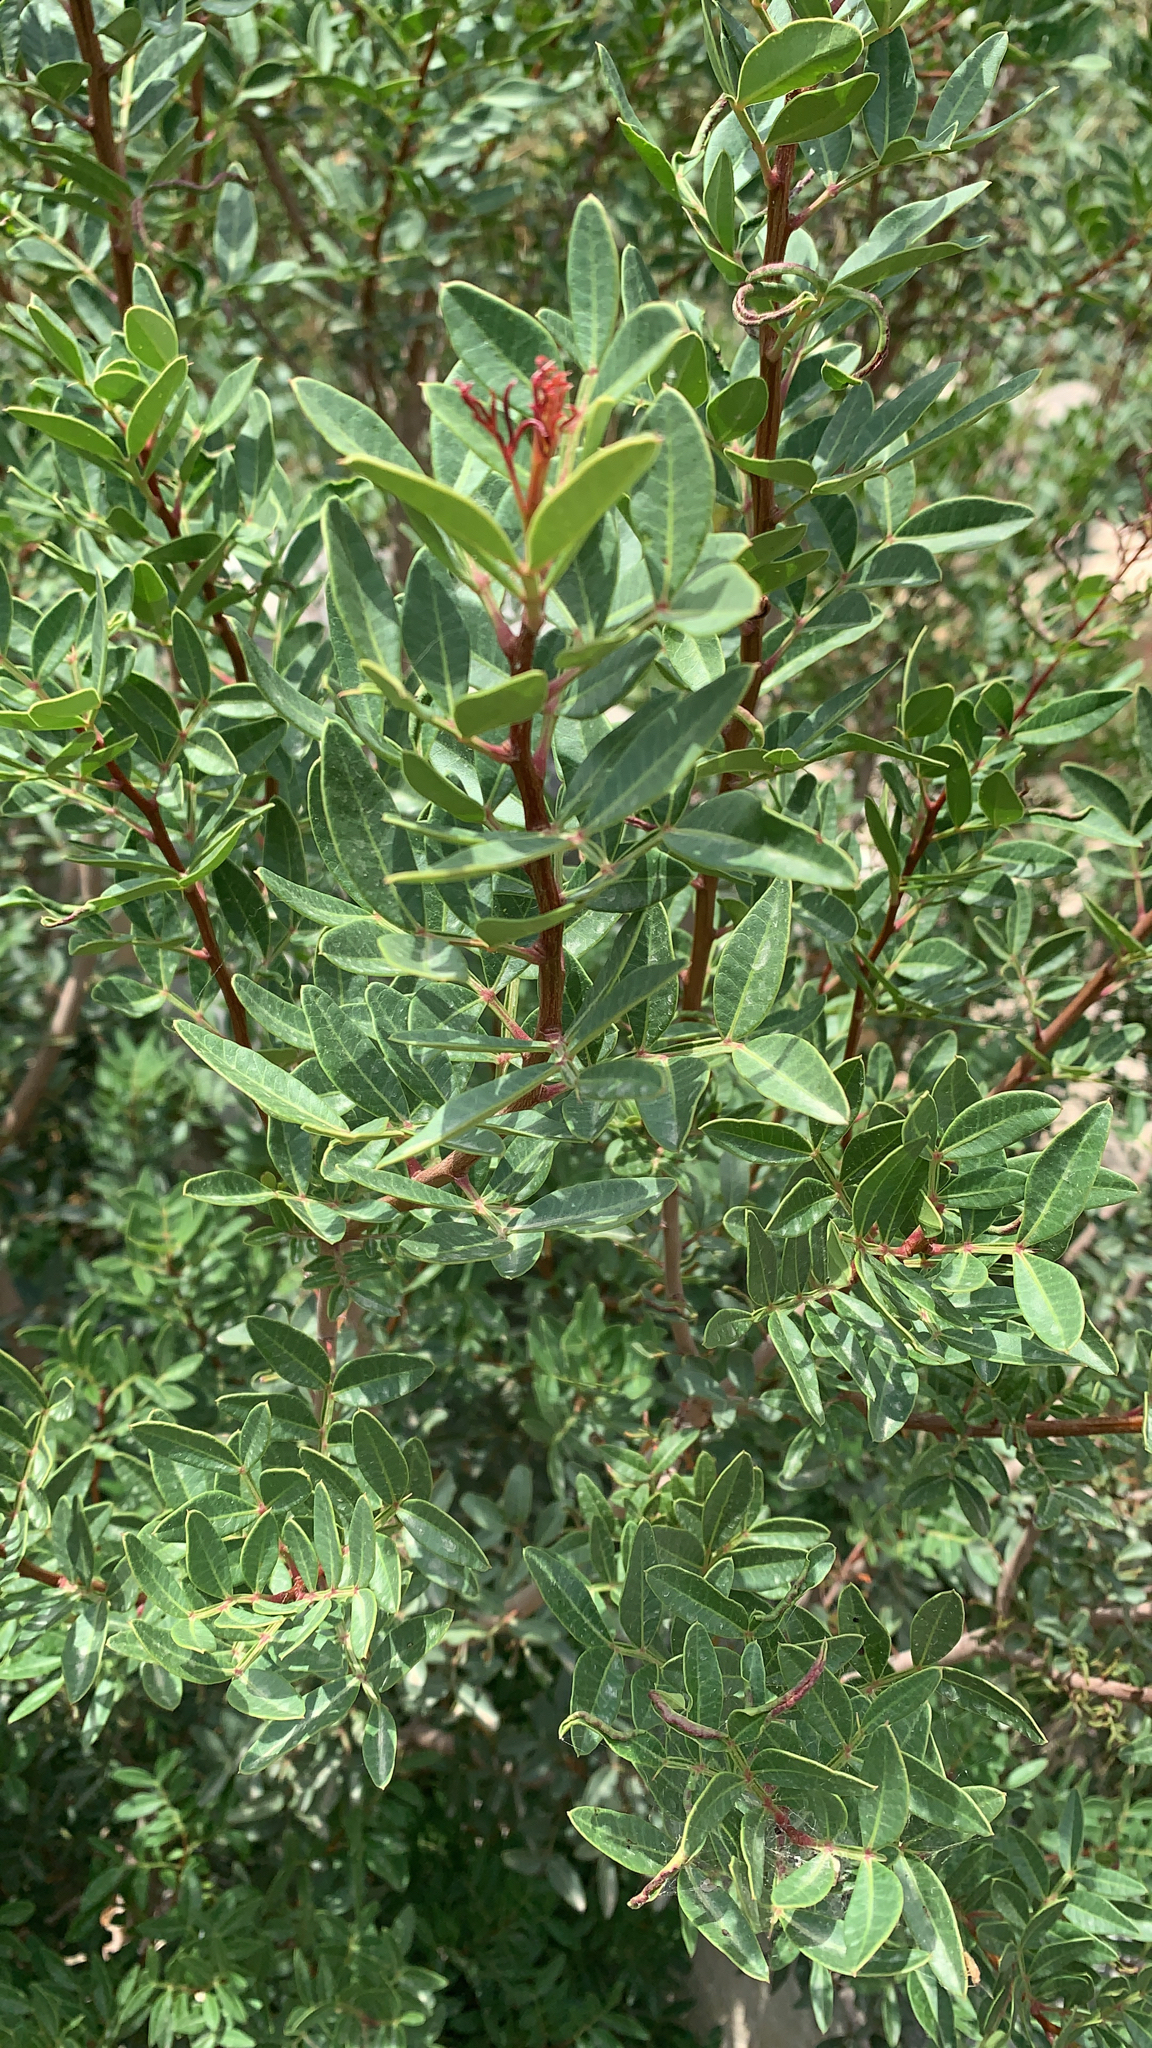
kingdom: Plantae
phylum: Tracheophyta
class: Magnoliopsida
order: Sapindales
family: Anacardiaceae
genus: Pistacia
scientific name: Pistacia lentiscus
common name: Lentisk
